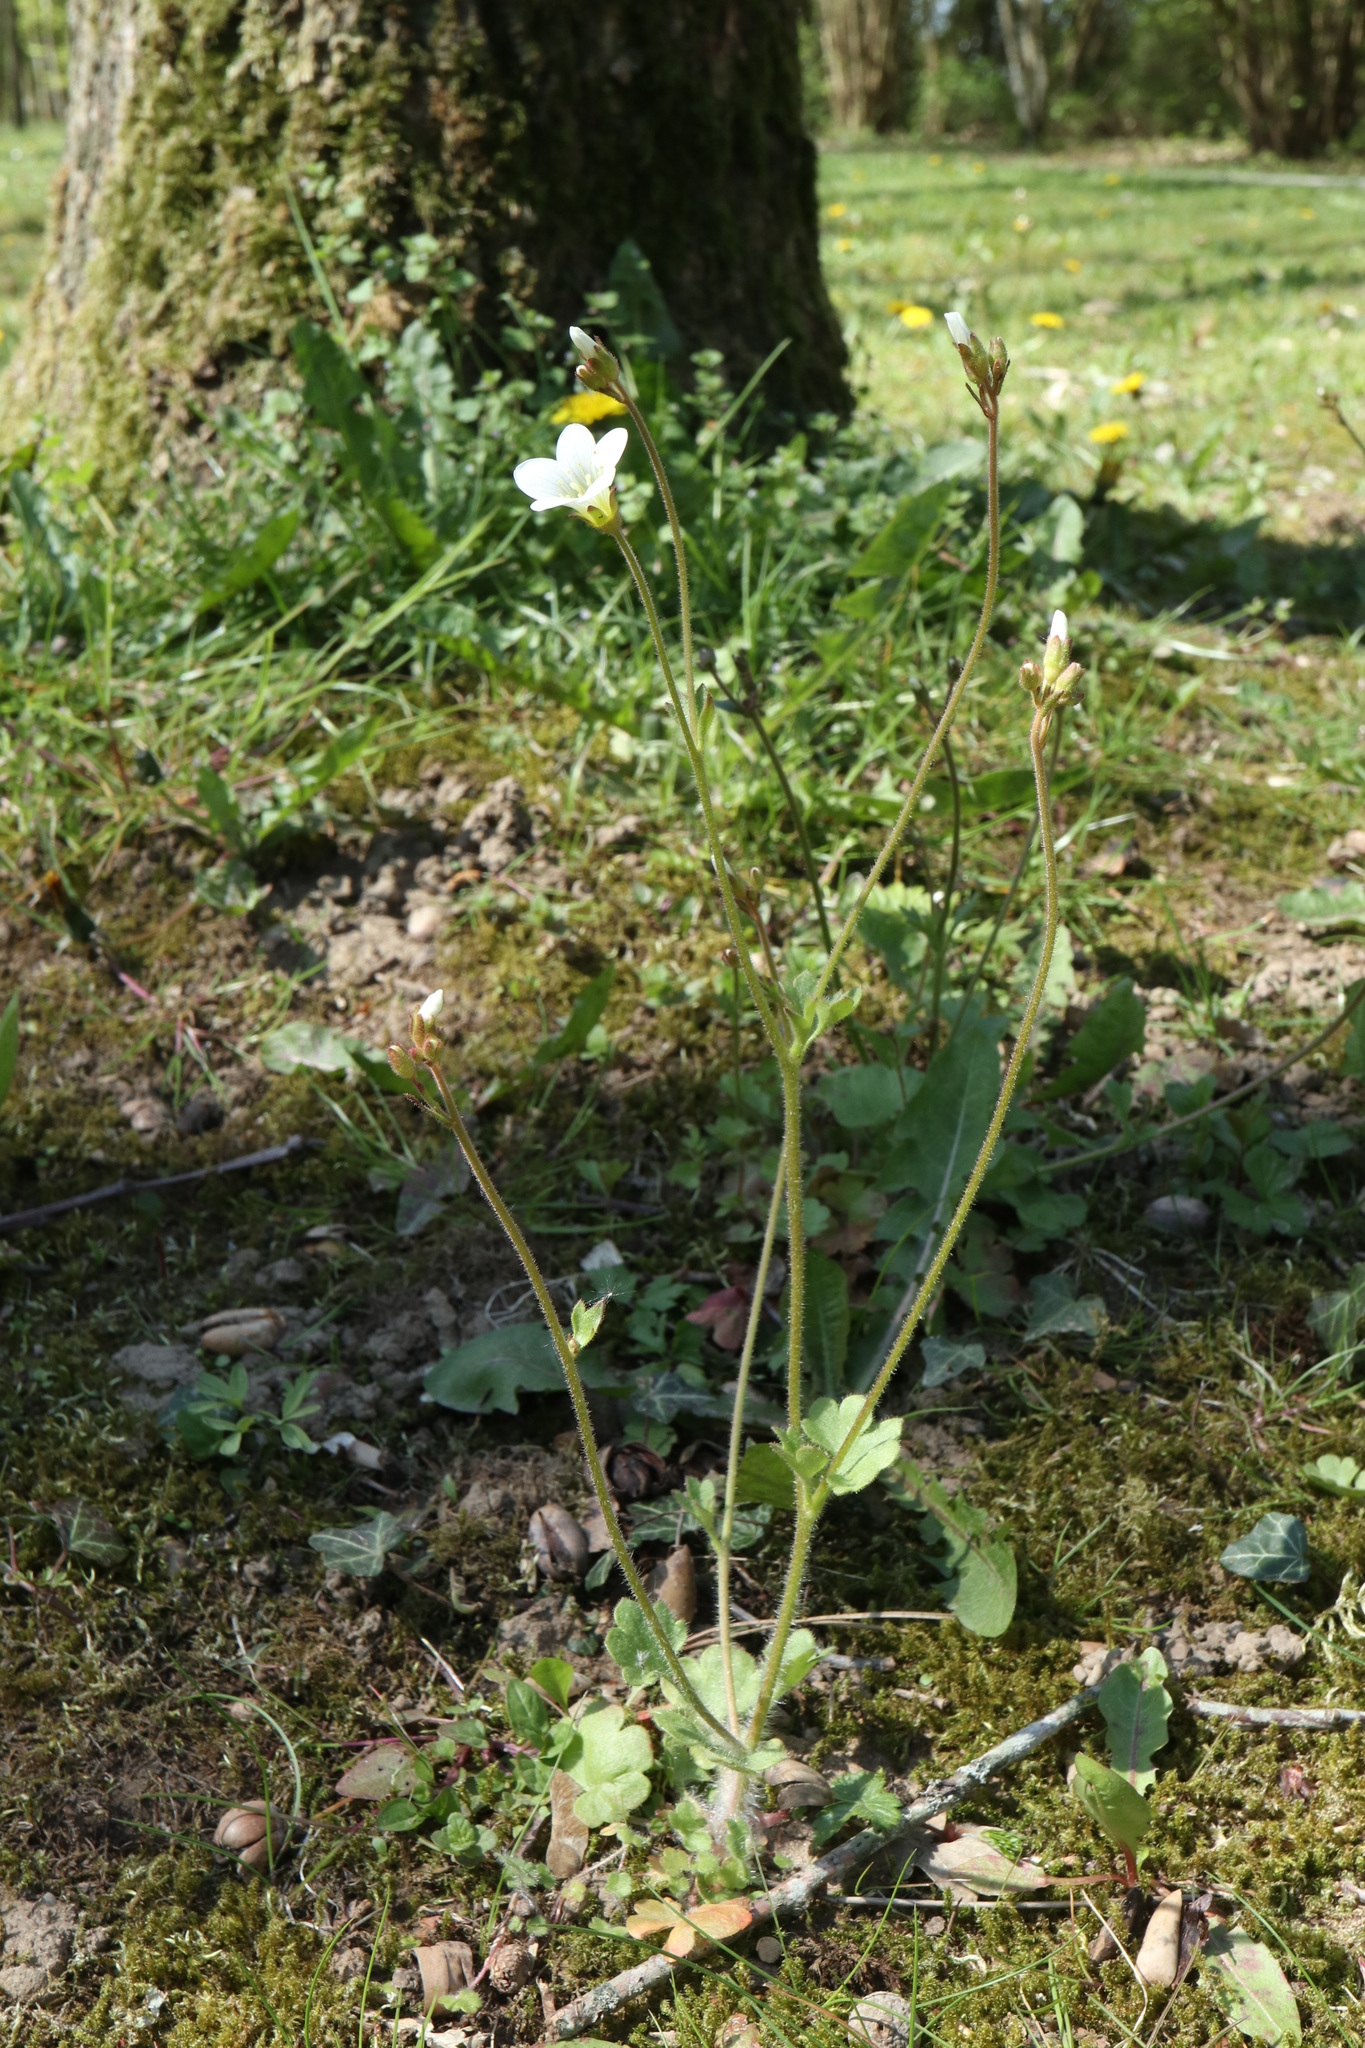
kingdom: Plantae
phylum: Tracheophyta
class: Magnoliopsida
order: Saxifragales
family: Saxifragaceae
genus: Saxifraga
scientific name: Saxifraga granulata
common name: Meadow saxifrage
